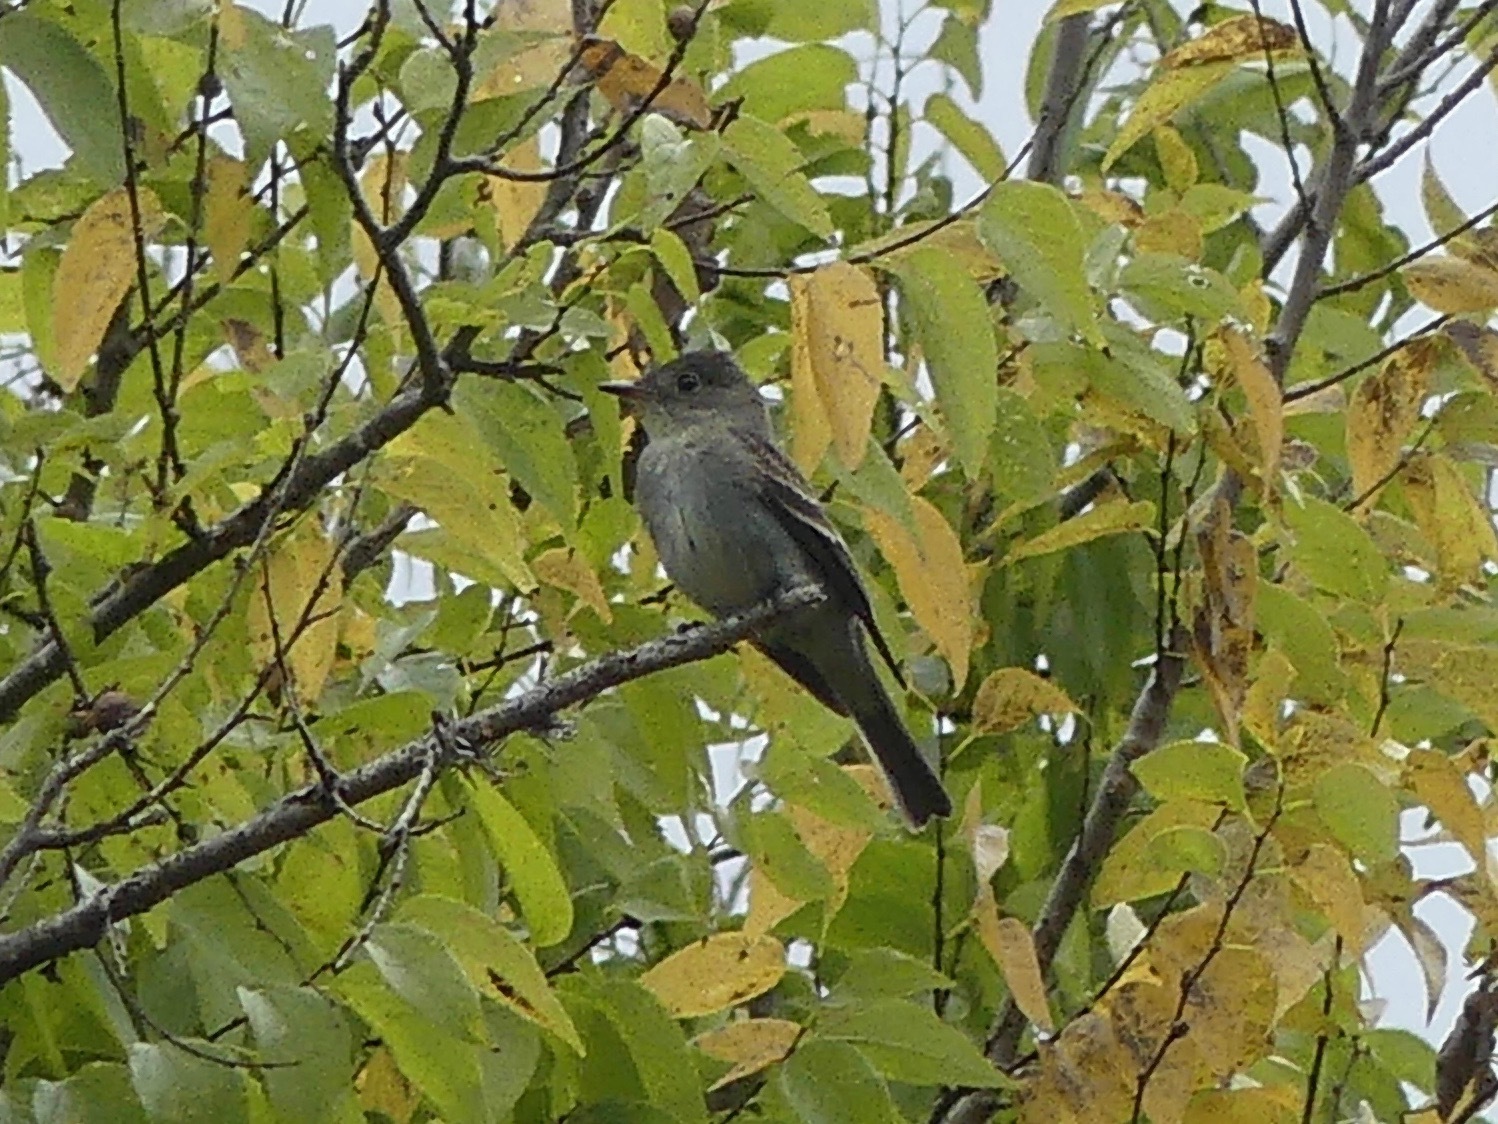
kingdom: Animalia
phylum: Chordata
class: Aves
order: Passeriformes
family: Tyrannidae
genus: Contopus
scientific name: Contopus virens
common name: Eastern wood-pewee
